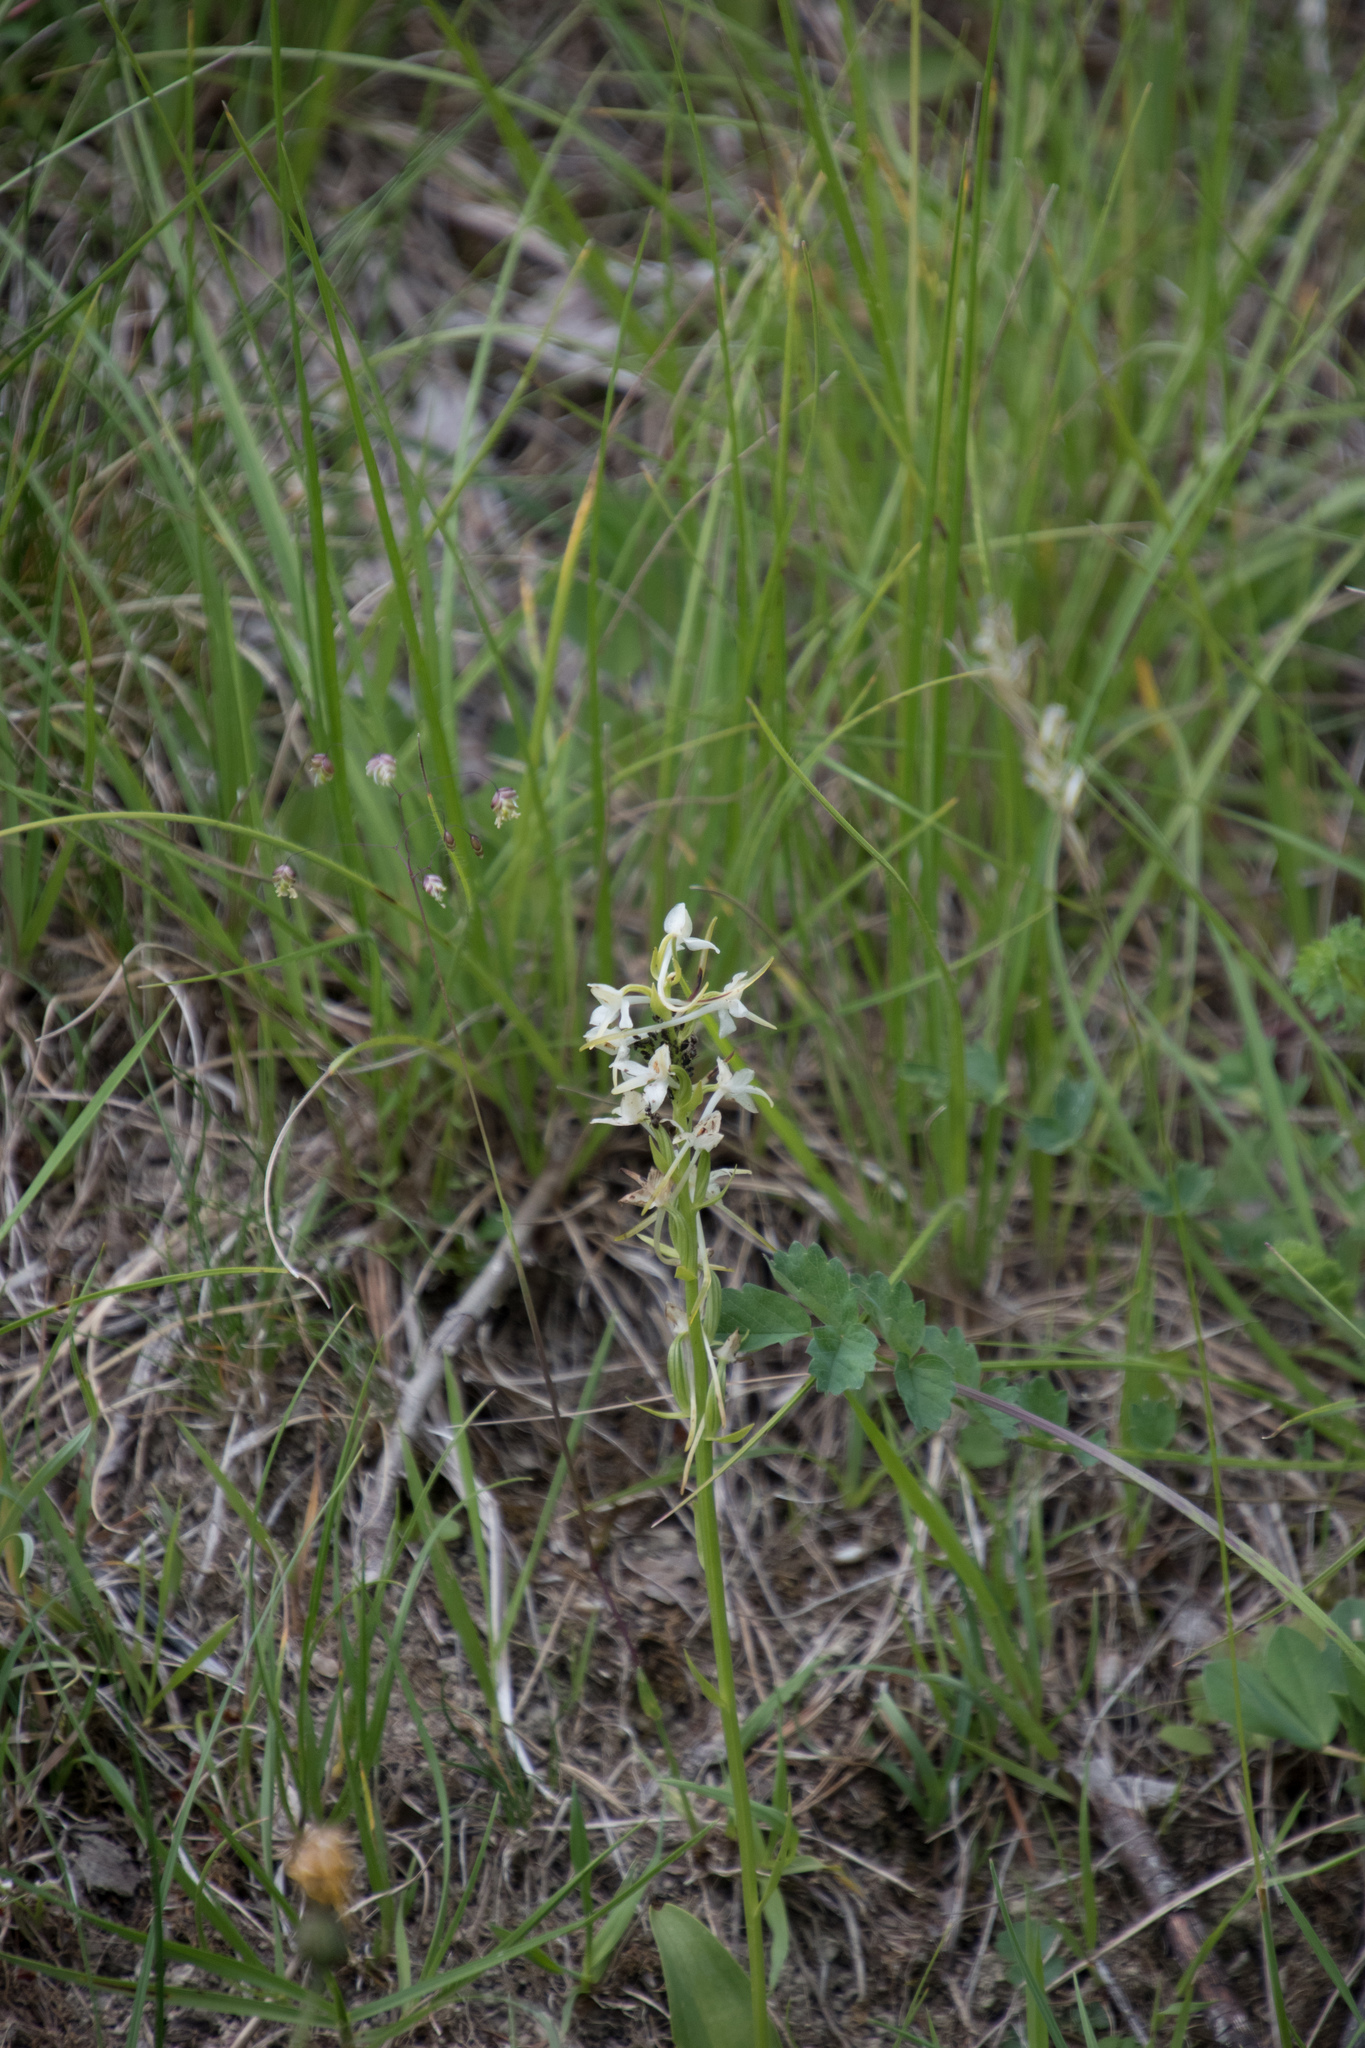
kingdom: Plantae
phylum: Tracheophyta
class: Liliopsida
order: Asparagales
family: Orchidaceae
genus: Platanthera
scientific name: Platanthera bifolia
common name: Lesser butterfly-orchid
